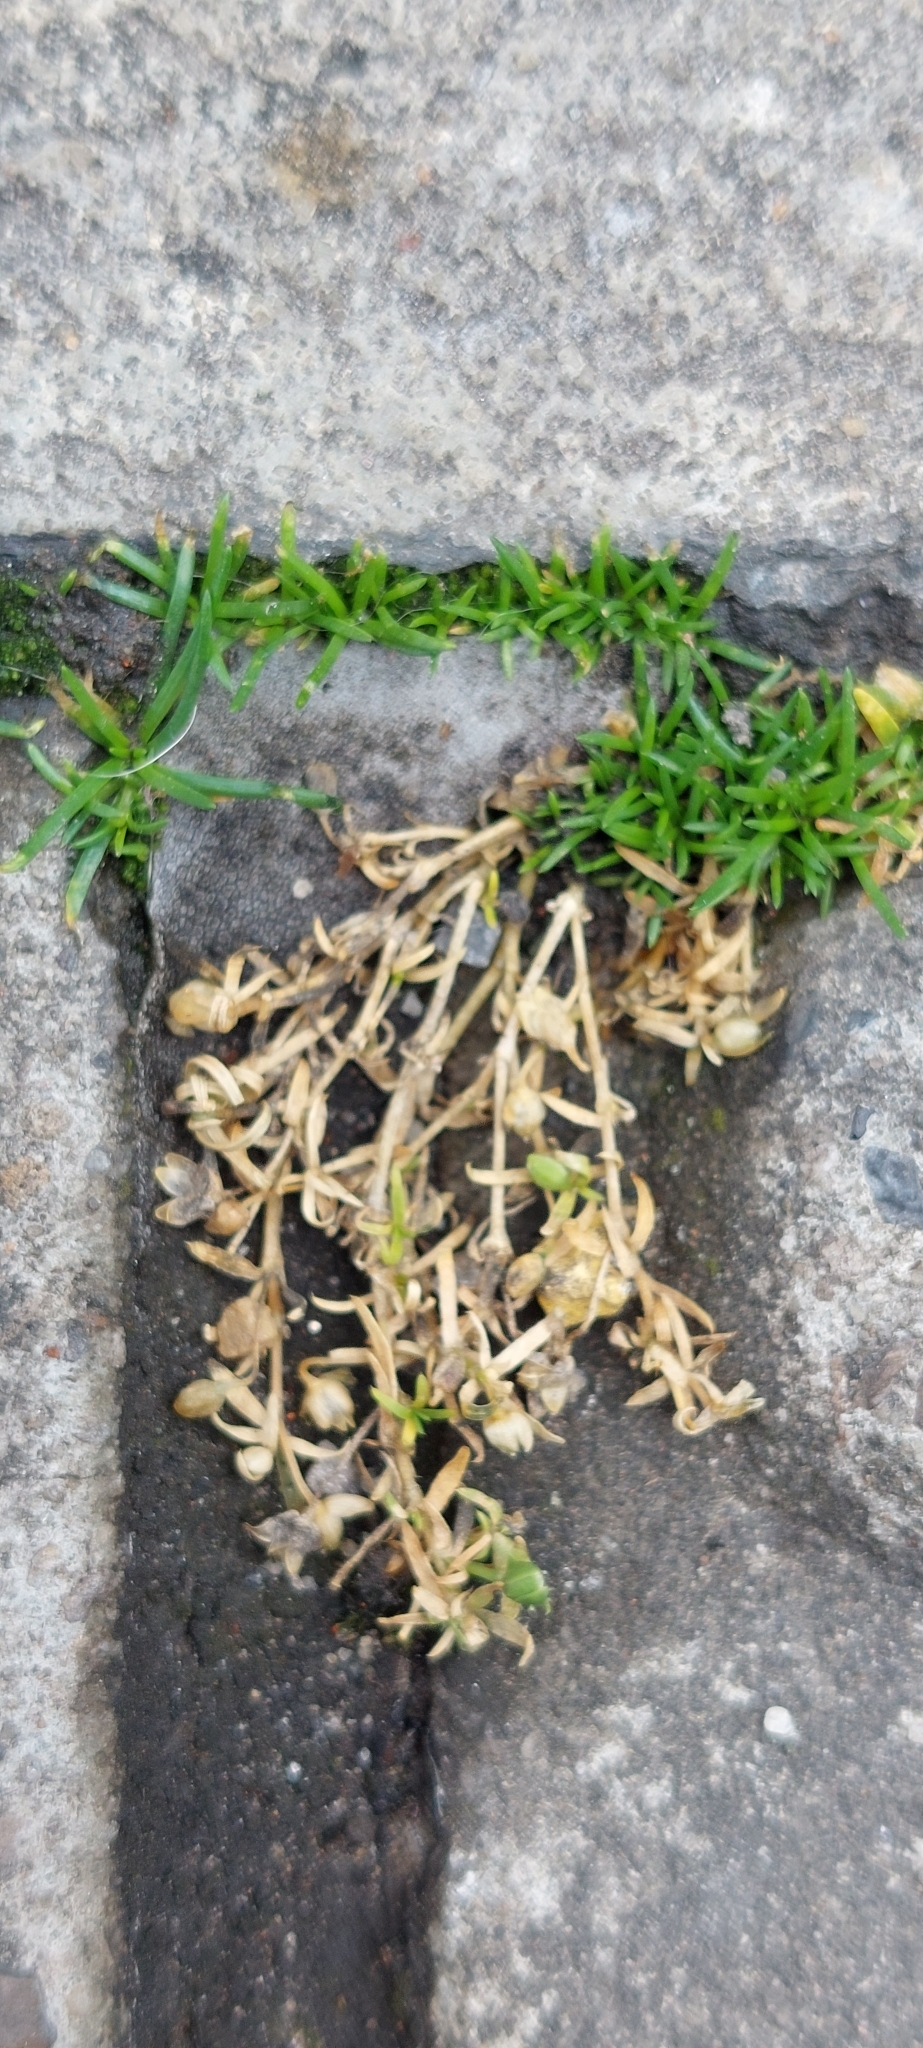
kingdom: Plantae
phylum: Tracheophyta
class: Magnoliopsida
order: Caryophyllales
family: Caryophyllaceae
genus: Sagina
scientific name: Sagina procumbens
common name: Procumbent pearlwort
